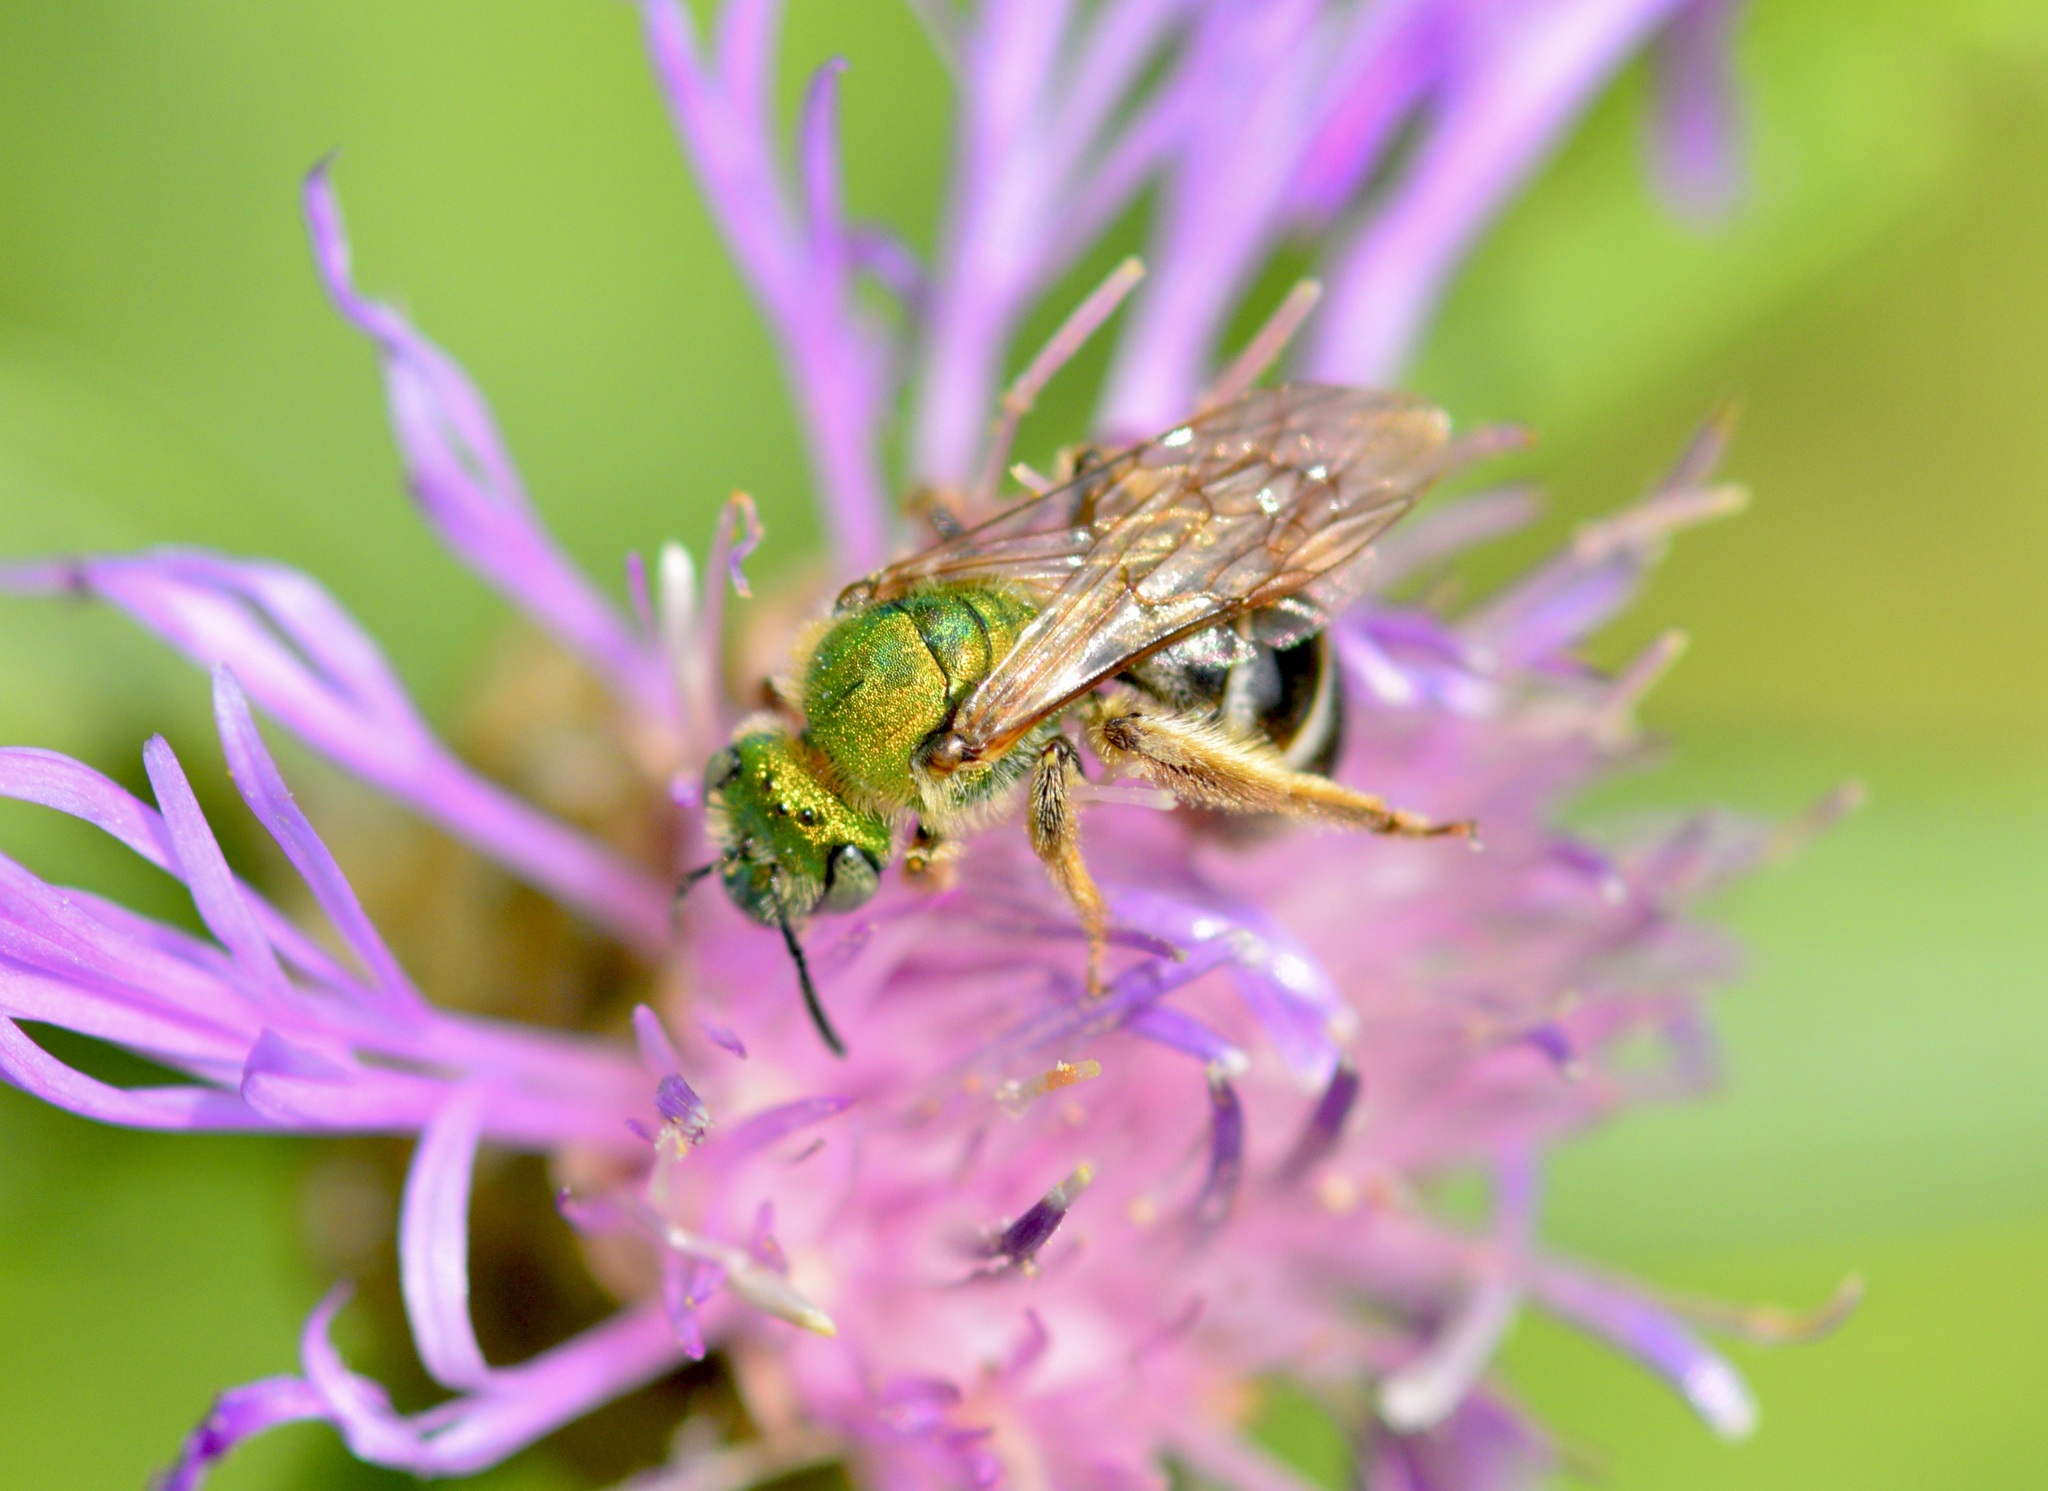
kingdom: Animalia
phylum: Arthropoda
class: Insecta
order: Hymenoptera
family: Halictidae
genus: Agapostemon
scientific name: Agapostemon virescens
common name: Bicolored striped sweat bee
